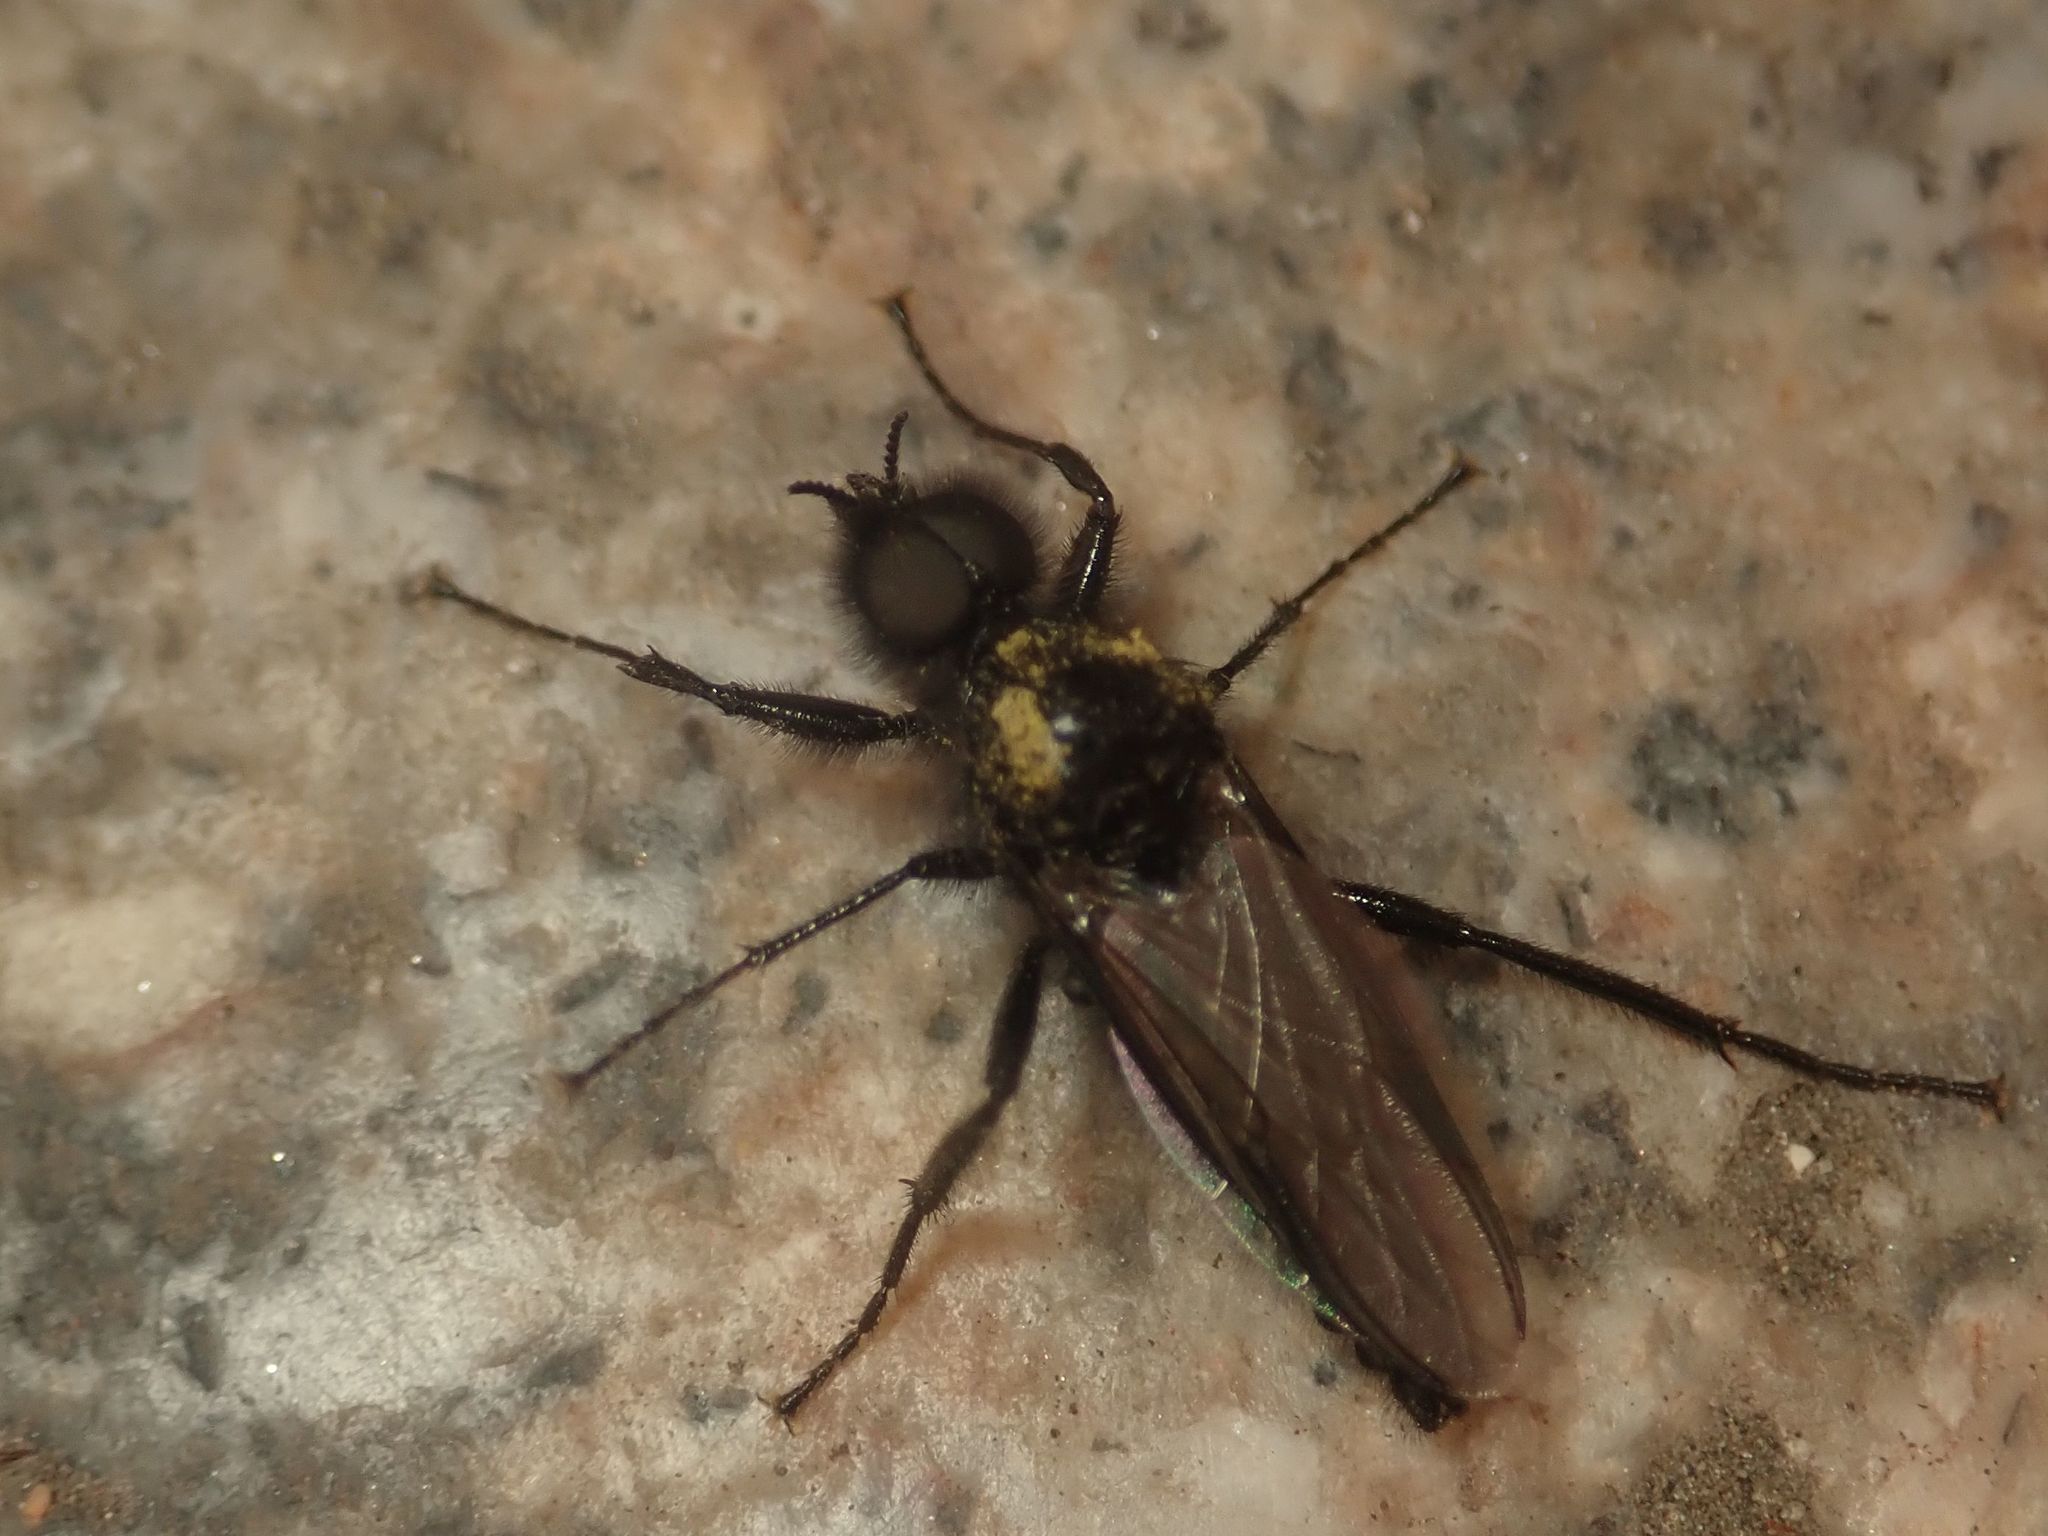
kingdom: Animalia
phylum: Arthropoda
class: Insecta
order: Diptera
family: Bibionidae
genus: Bibio
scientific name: Bibio marci
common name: St marks fly
